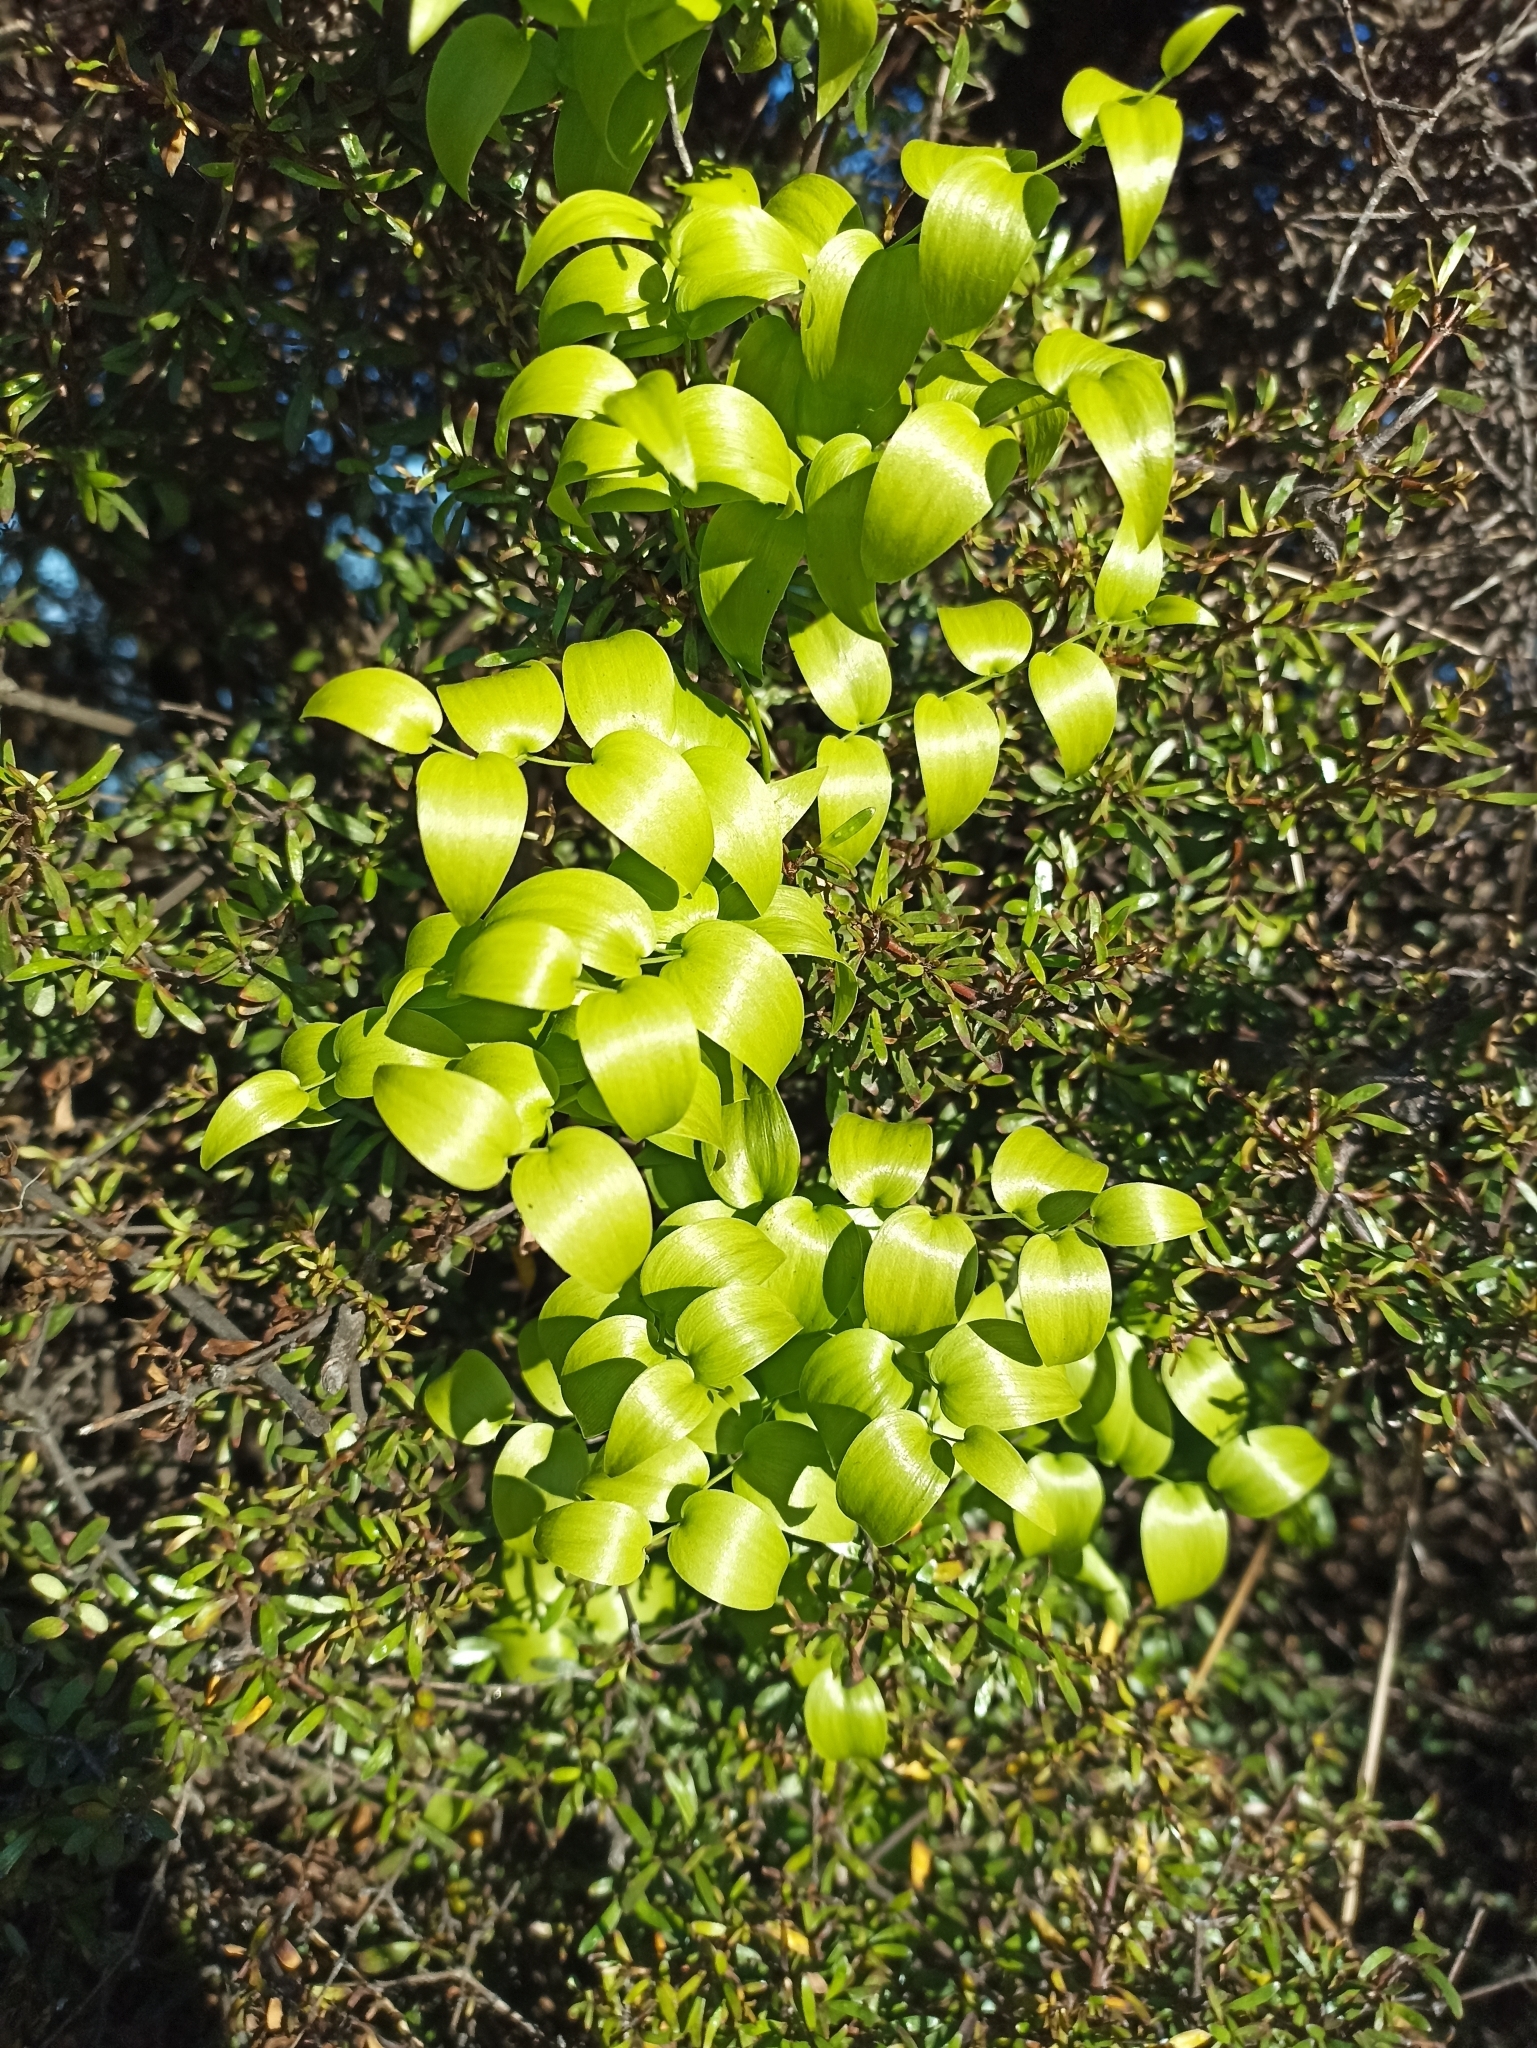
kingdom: Plantae
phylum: Tracheophyta
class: Liliopsida
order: Asparagales
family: Asparagaceae
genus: Asparagus
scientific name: Asparagus asparagoides
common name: African asparagus fern
